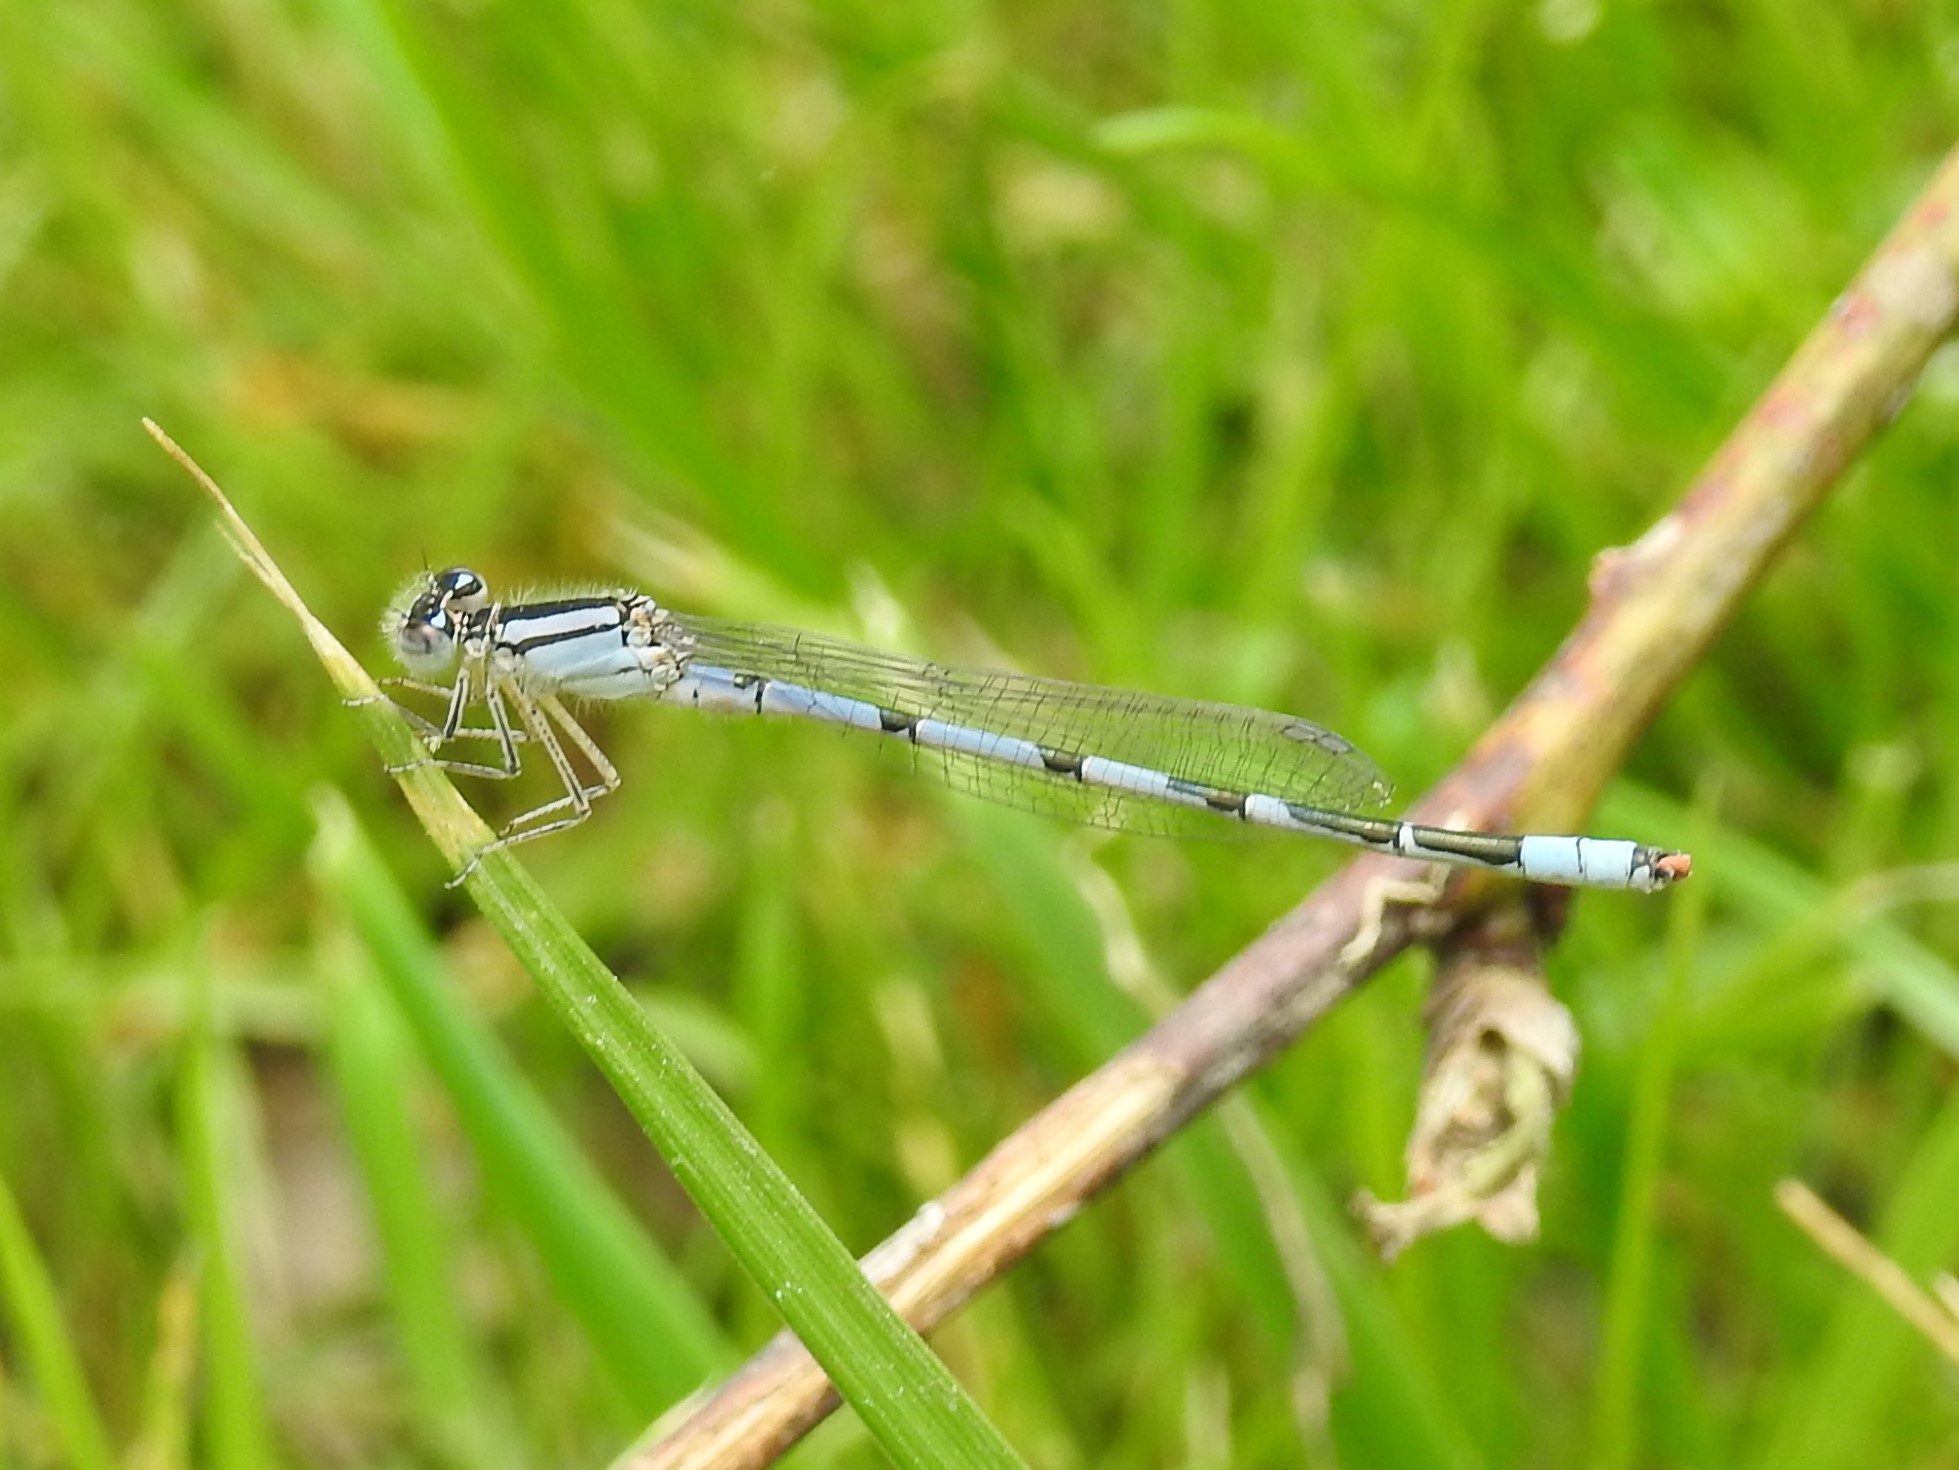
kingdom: Animalia
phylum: Arthropoda
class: Insecta
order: Odonata
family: Coenagrionidae
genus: Enallagma
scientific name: Enallagma civile
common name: Damselfly
